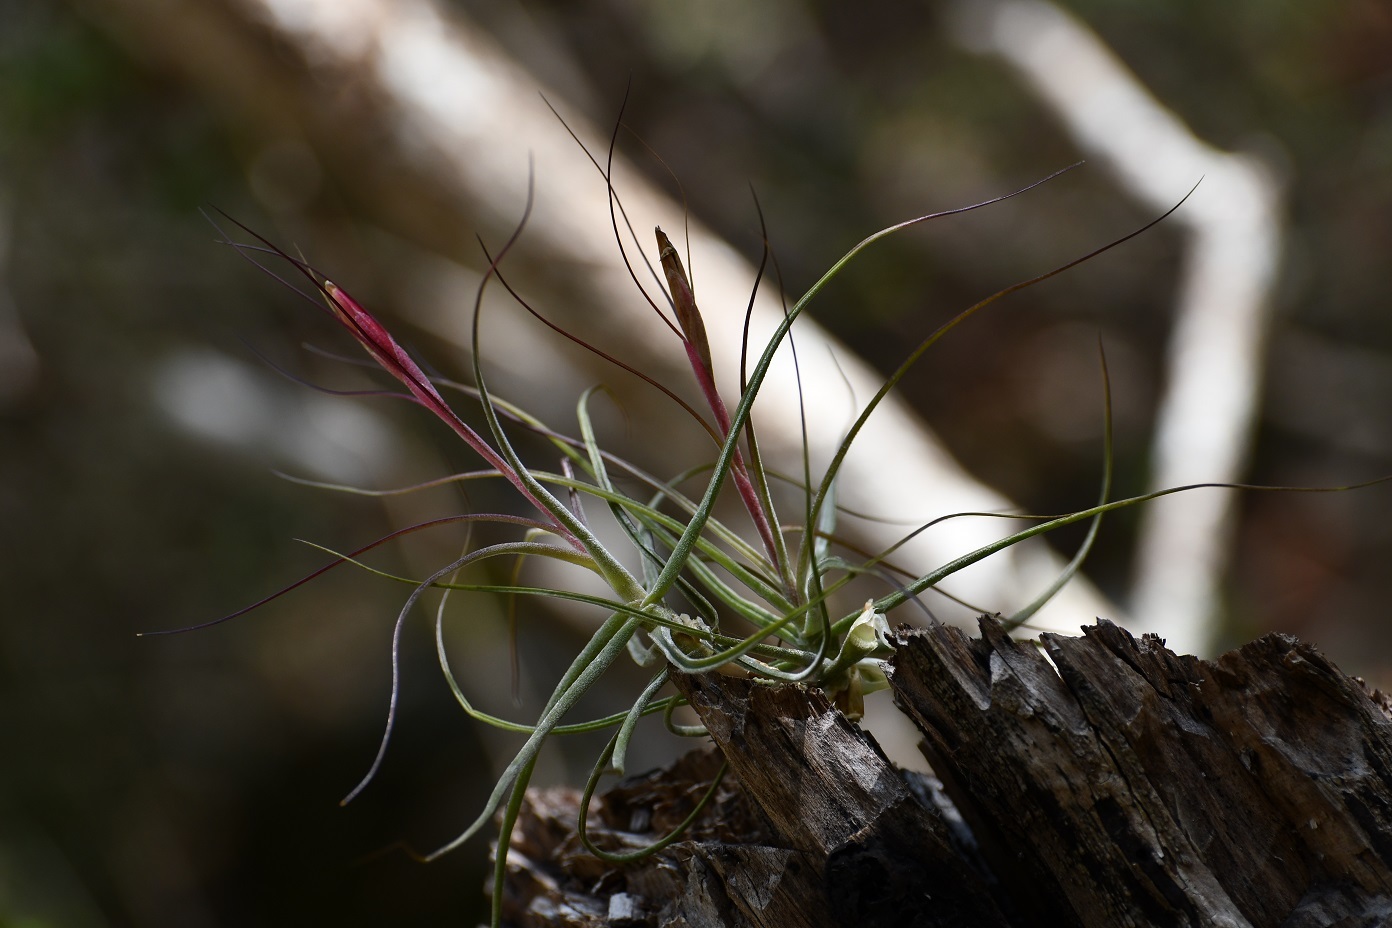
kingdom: Plantae
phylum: Tracheophyta
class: Liliopsida
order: Poales
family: Bromeliaceae
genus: Tillandsia
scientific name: Tillandsia schiedeana
